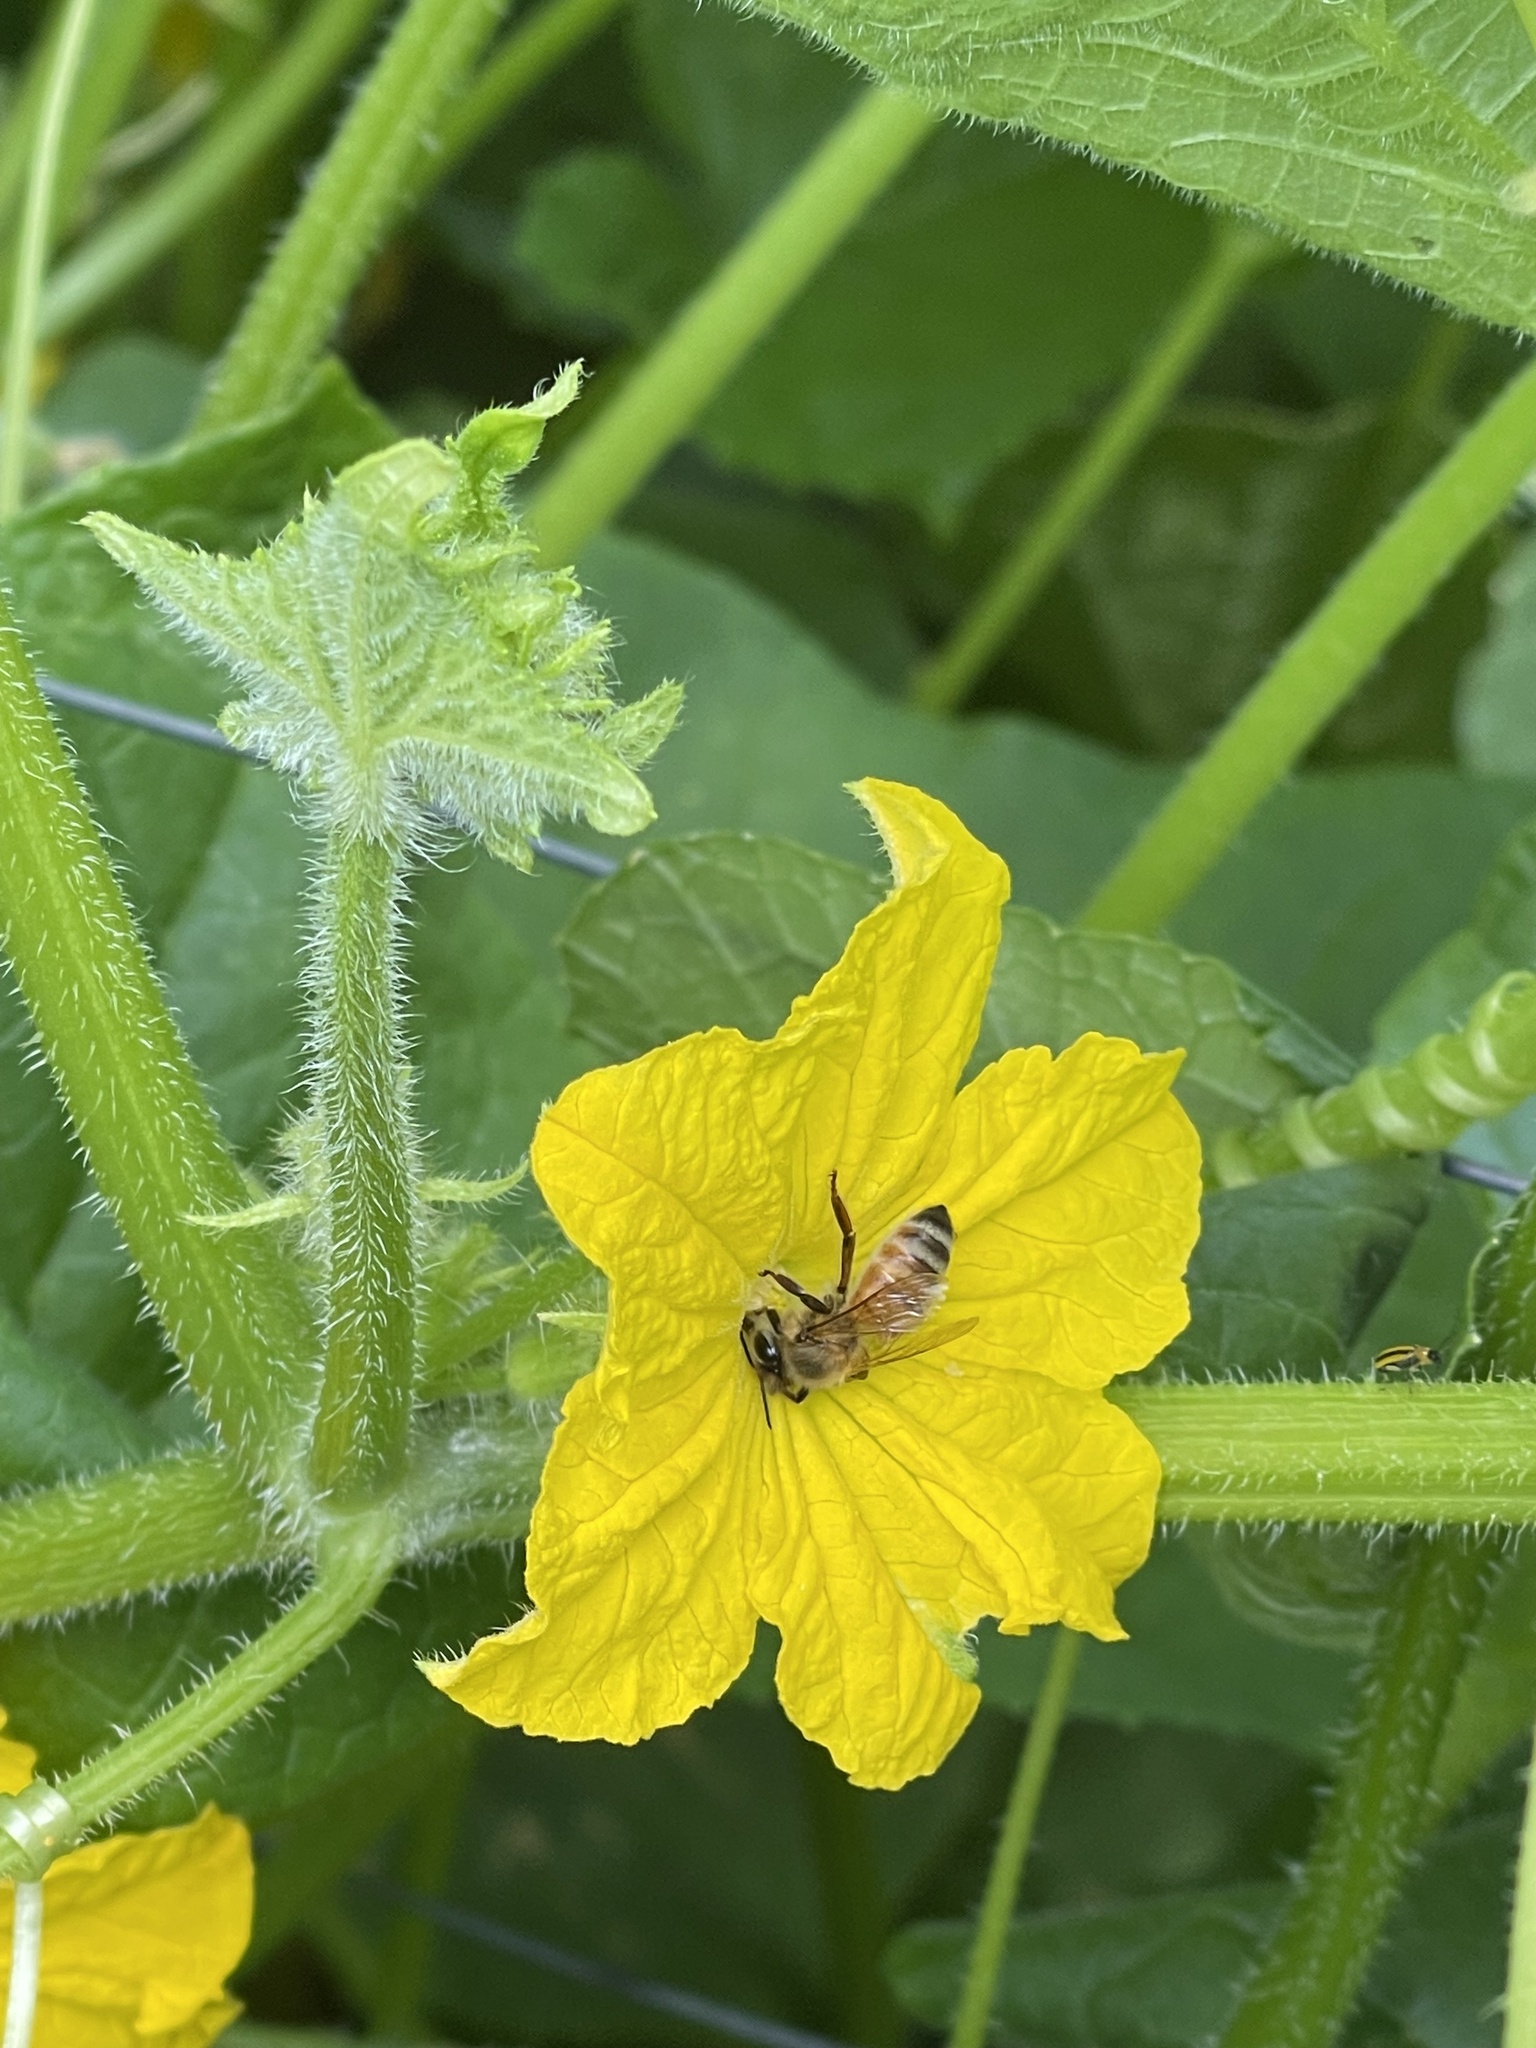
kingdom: Animalia
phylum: Arthropoda
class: Insecta
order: Hymenoptera
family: Apidae
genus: Apis
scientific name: Apis mellifera
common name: Honey bee
